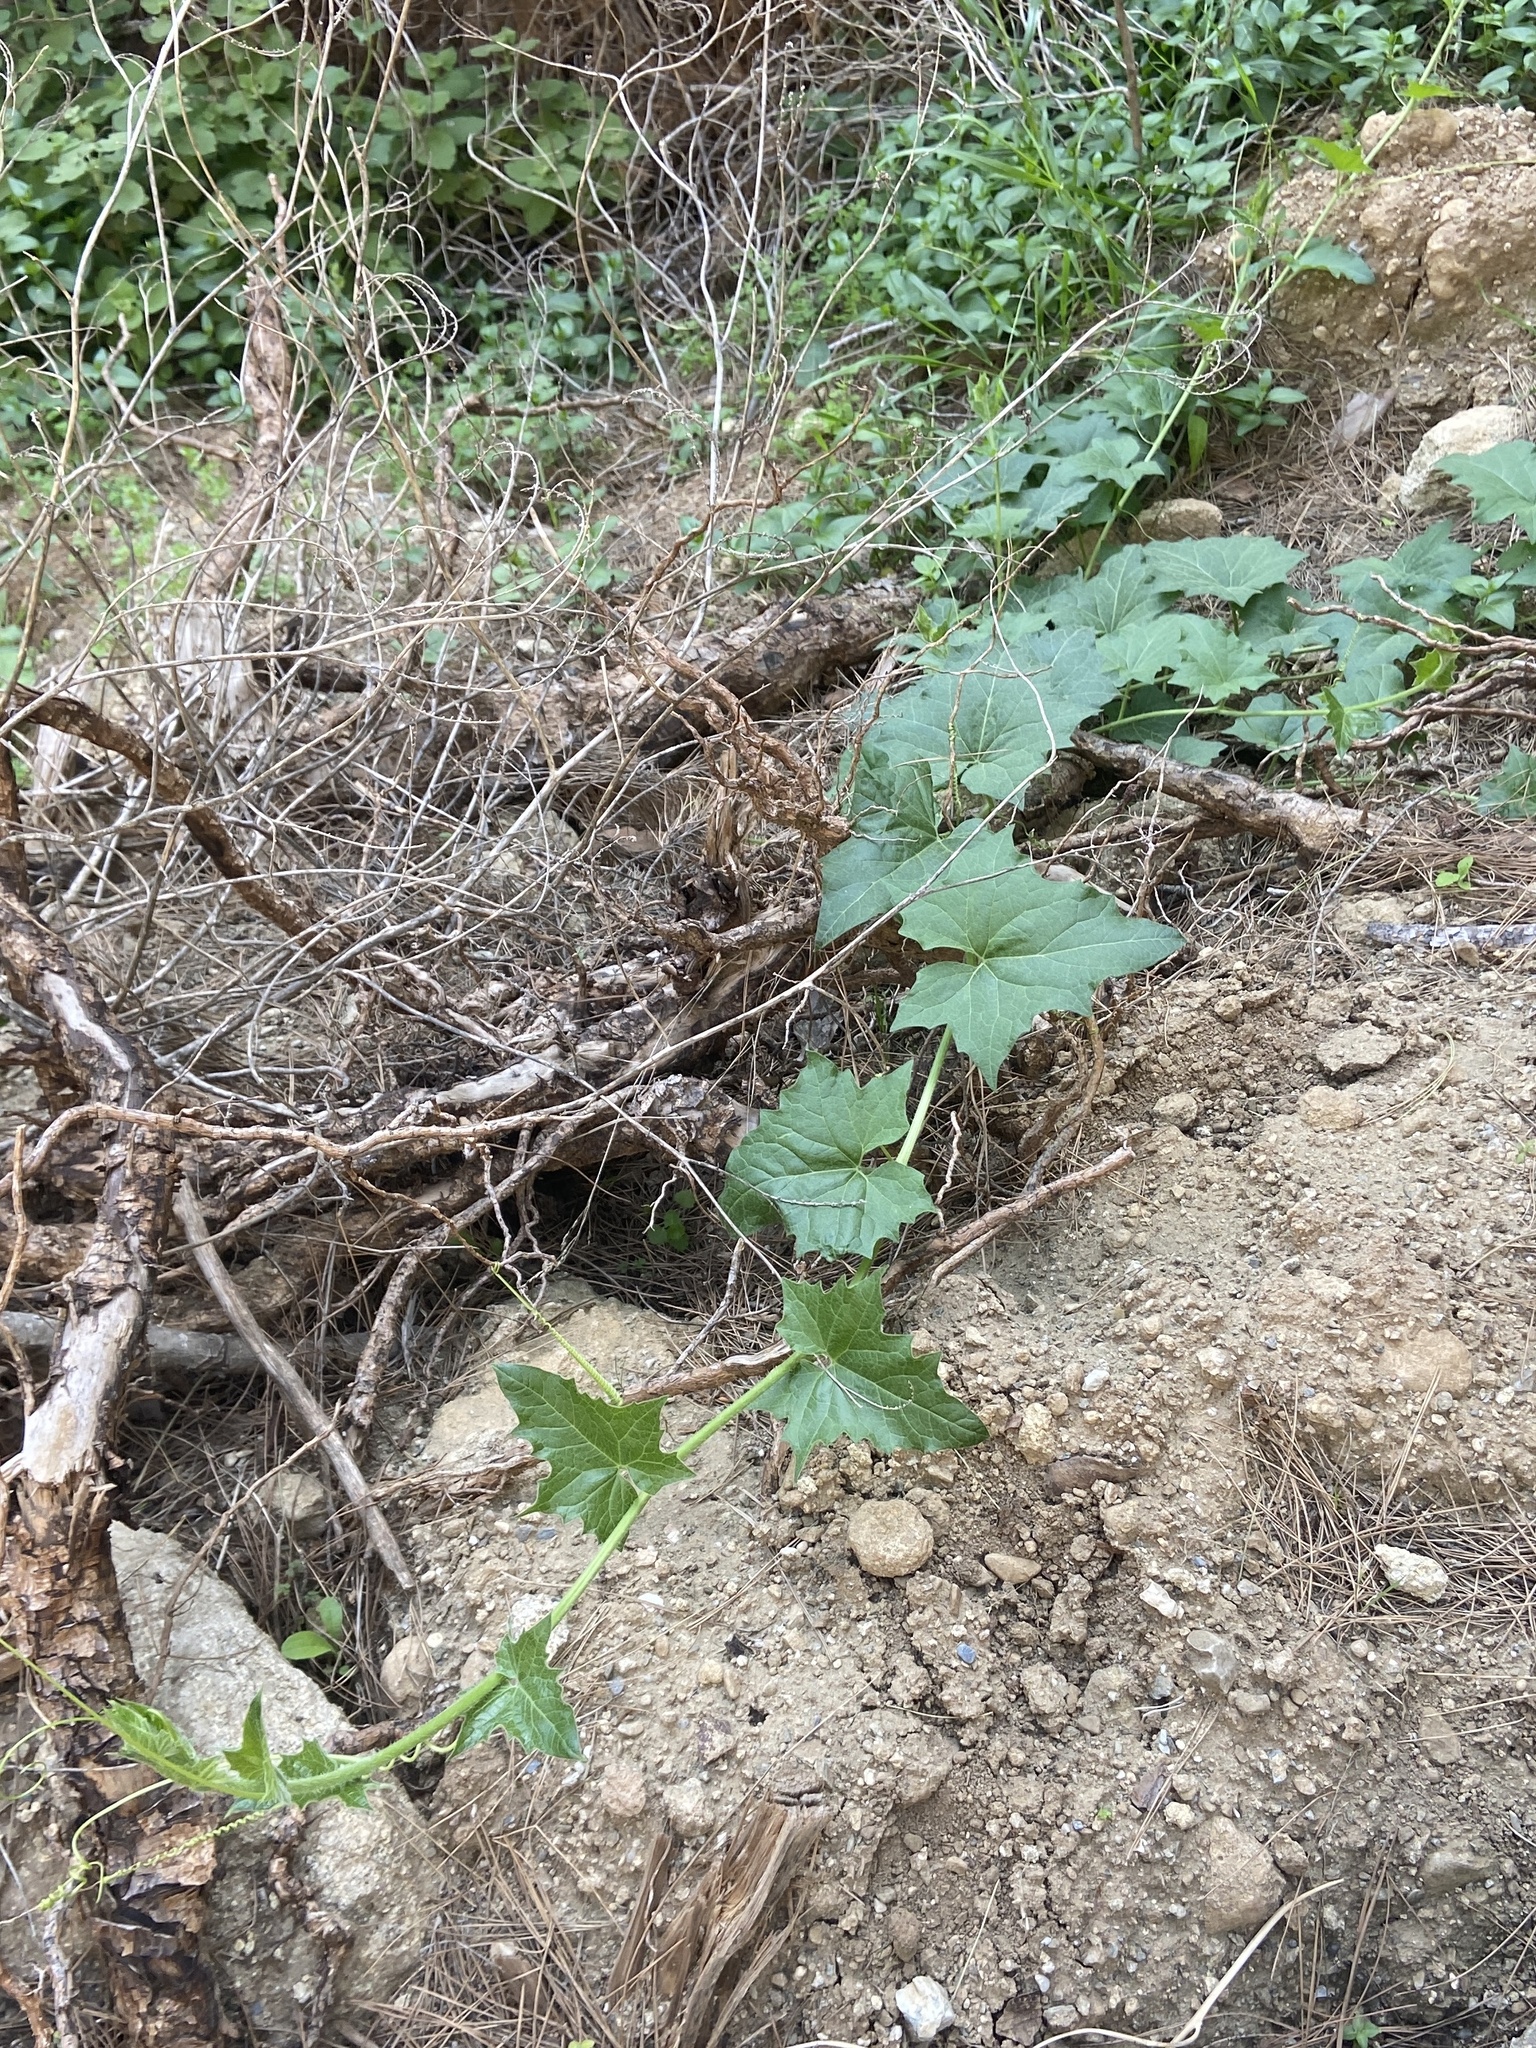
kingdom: Plantae
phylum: Tracheophyta
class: Magnoliopsida
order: Cucurbitales
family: Cucurbitaceae
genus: Bryonia
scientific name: Bryonia cretica
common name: Cretan bryony
